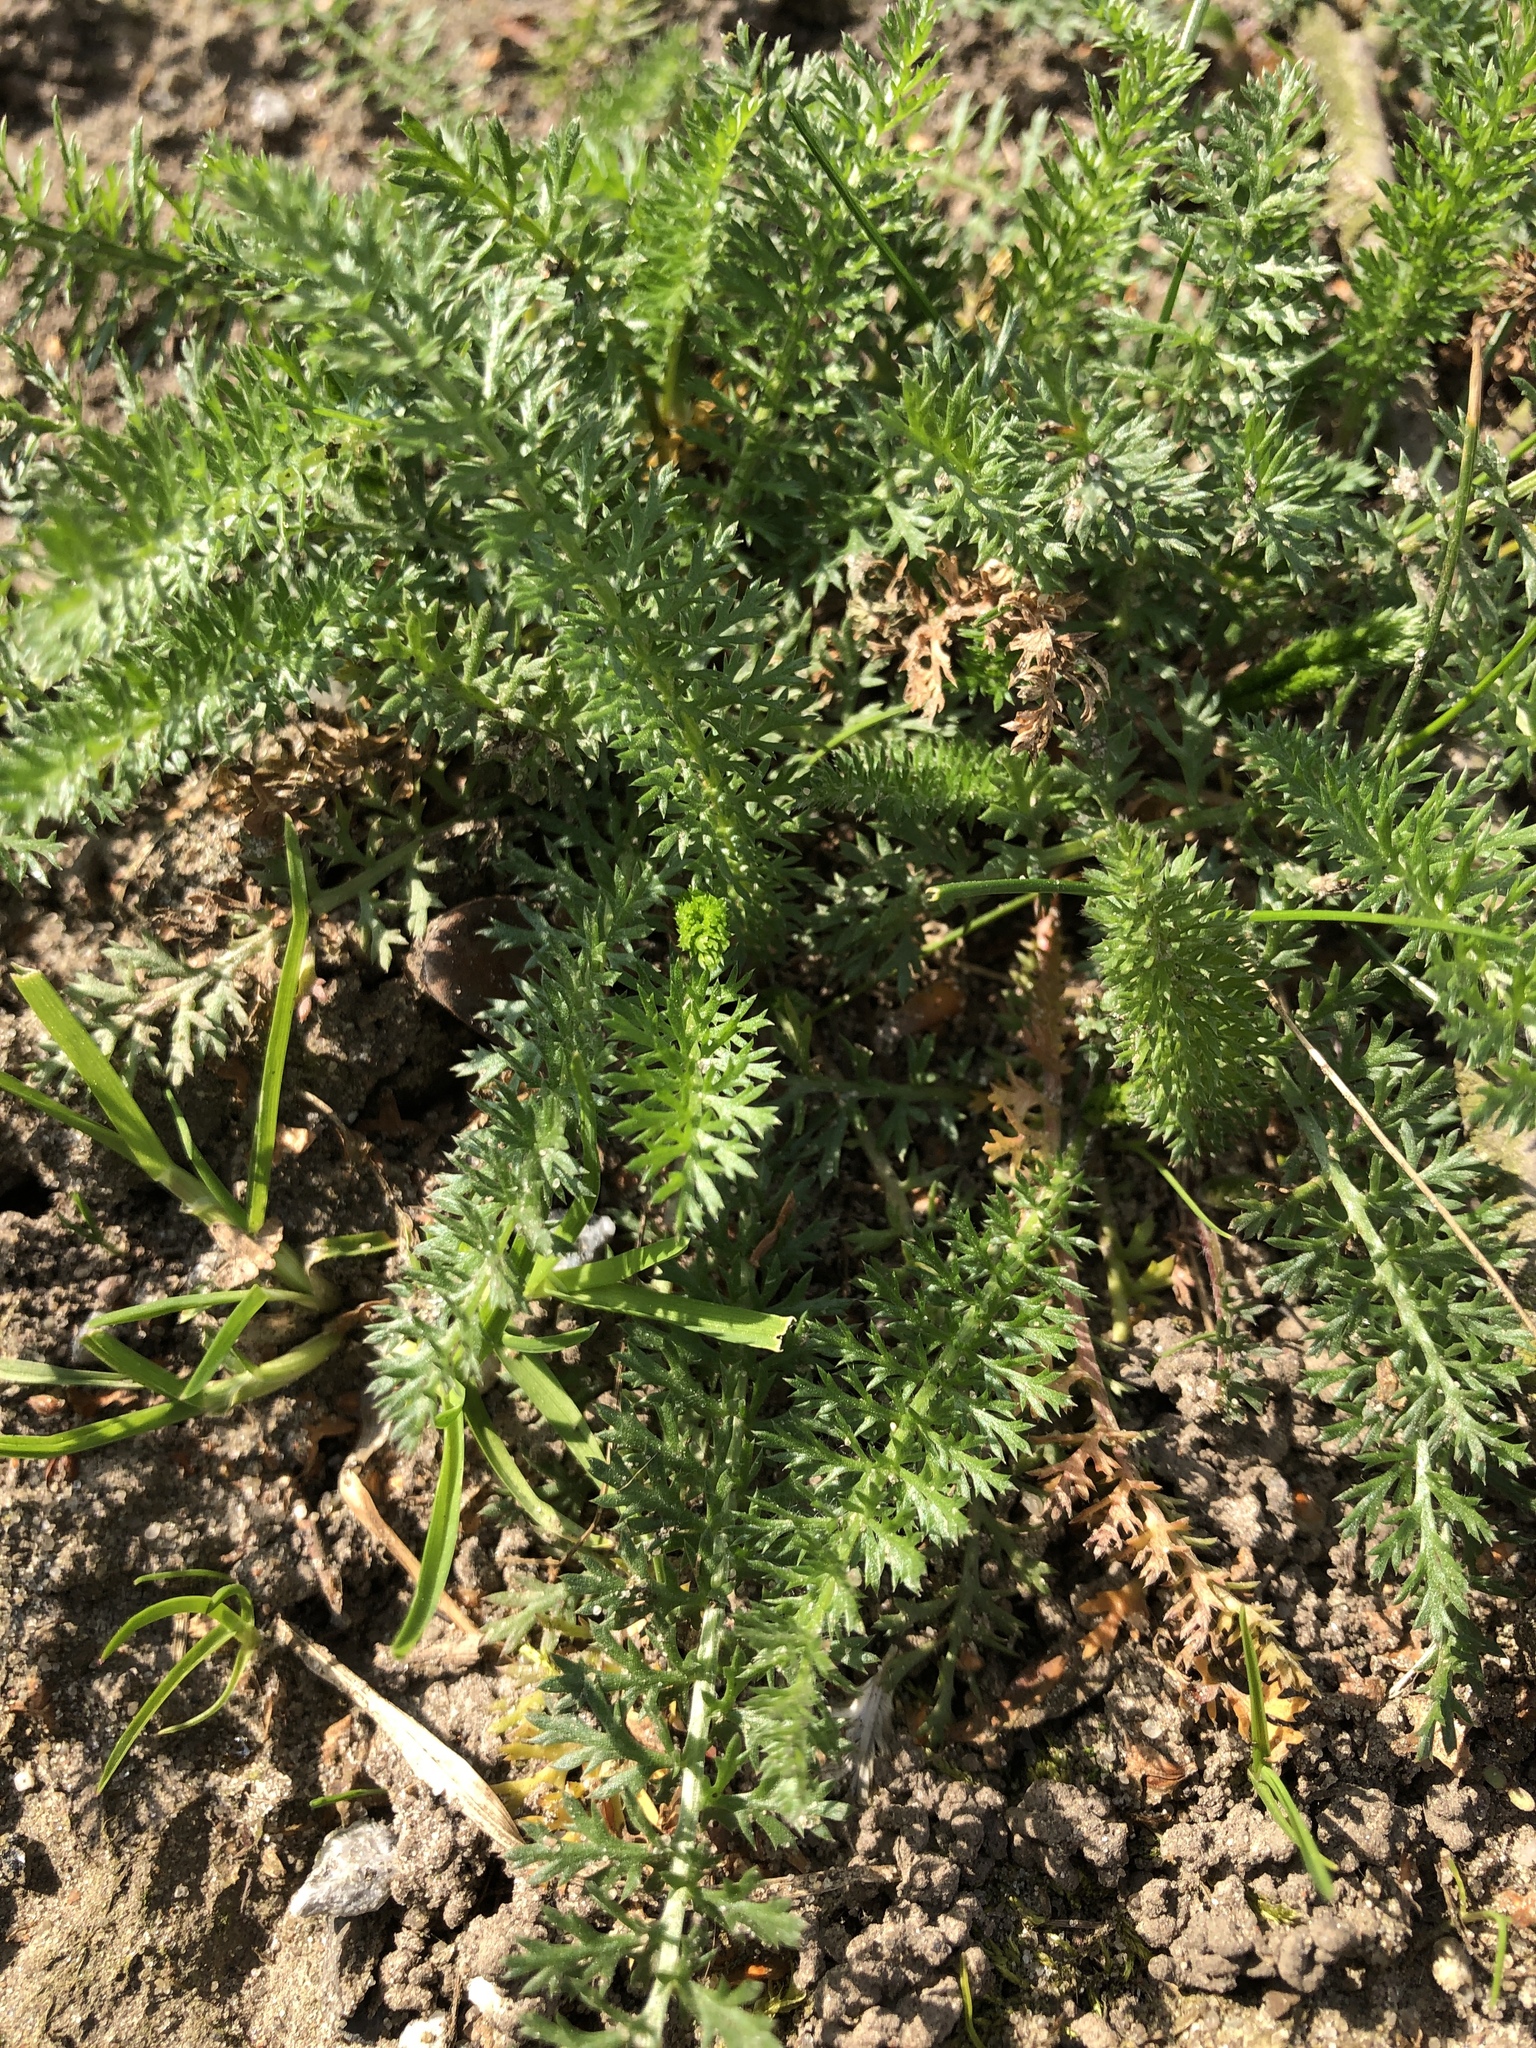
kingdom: Plantae
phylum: Tracheophyta
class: Magnoliopsida
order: Asterales
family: Asteraceae
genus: Achillea
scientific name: Achillea millefolium
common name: Yarrow
